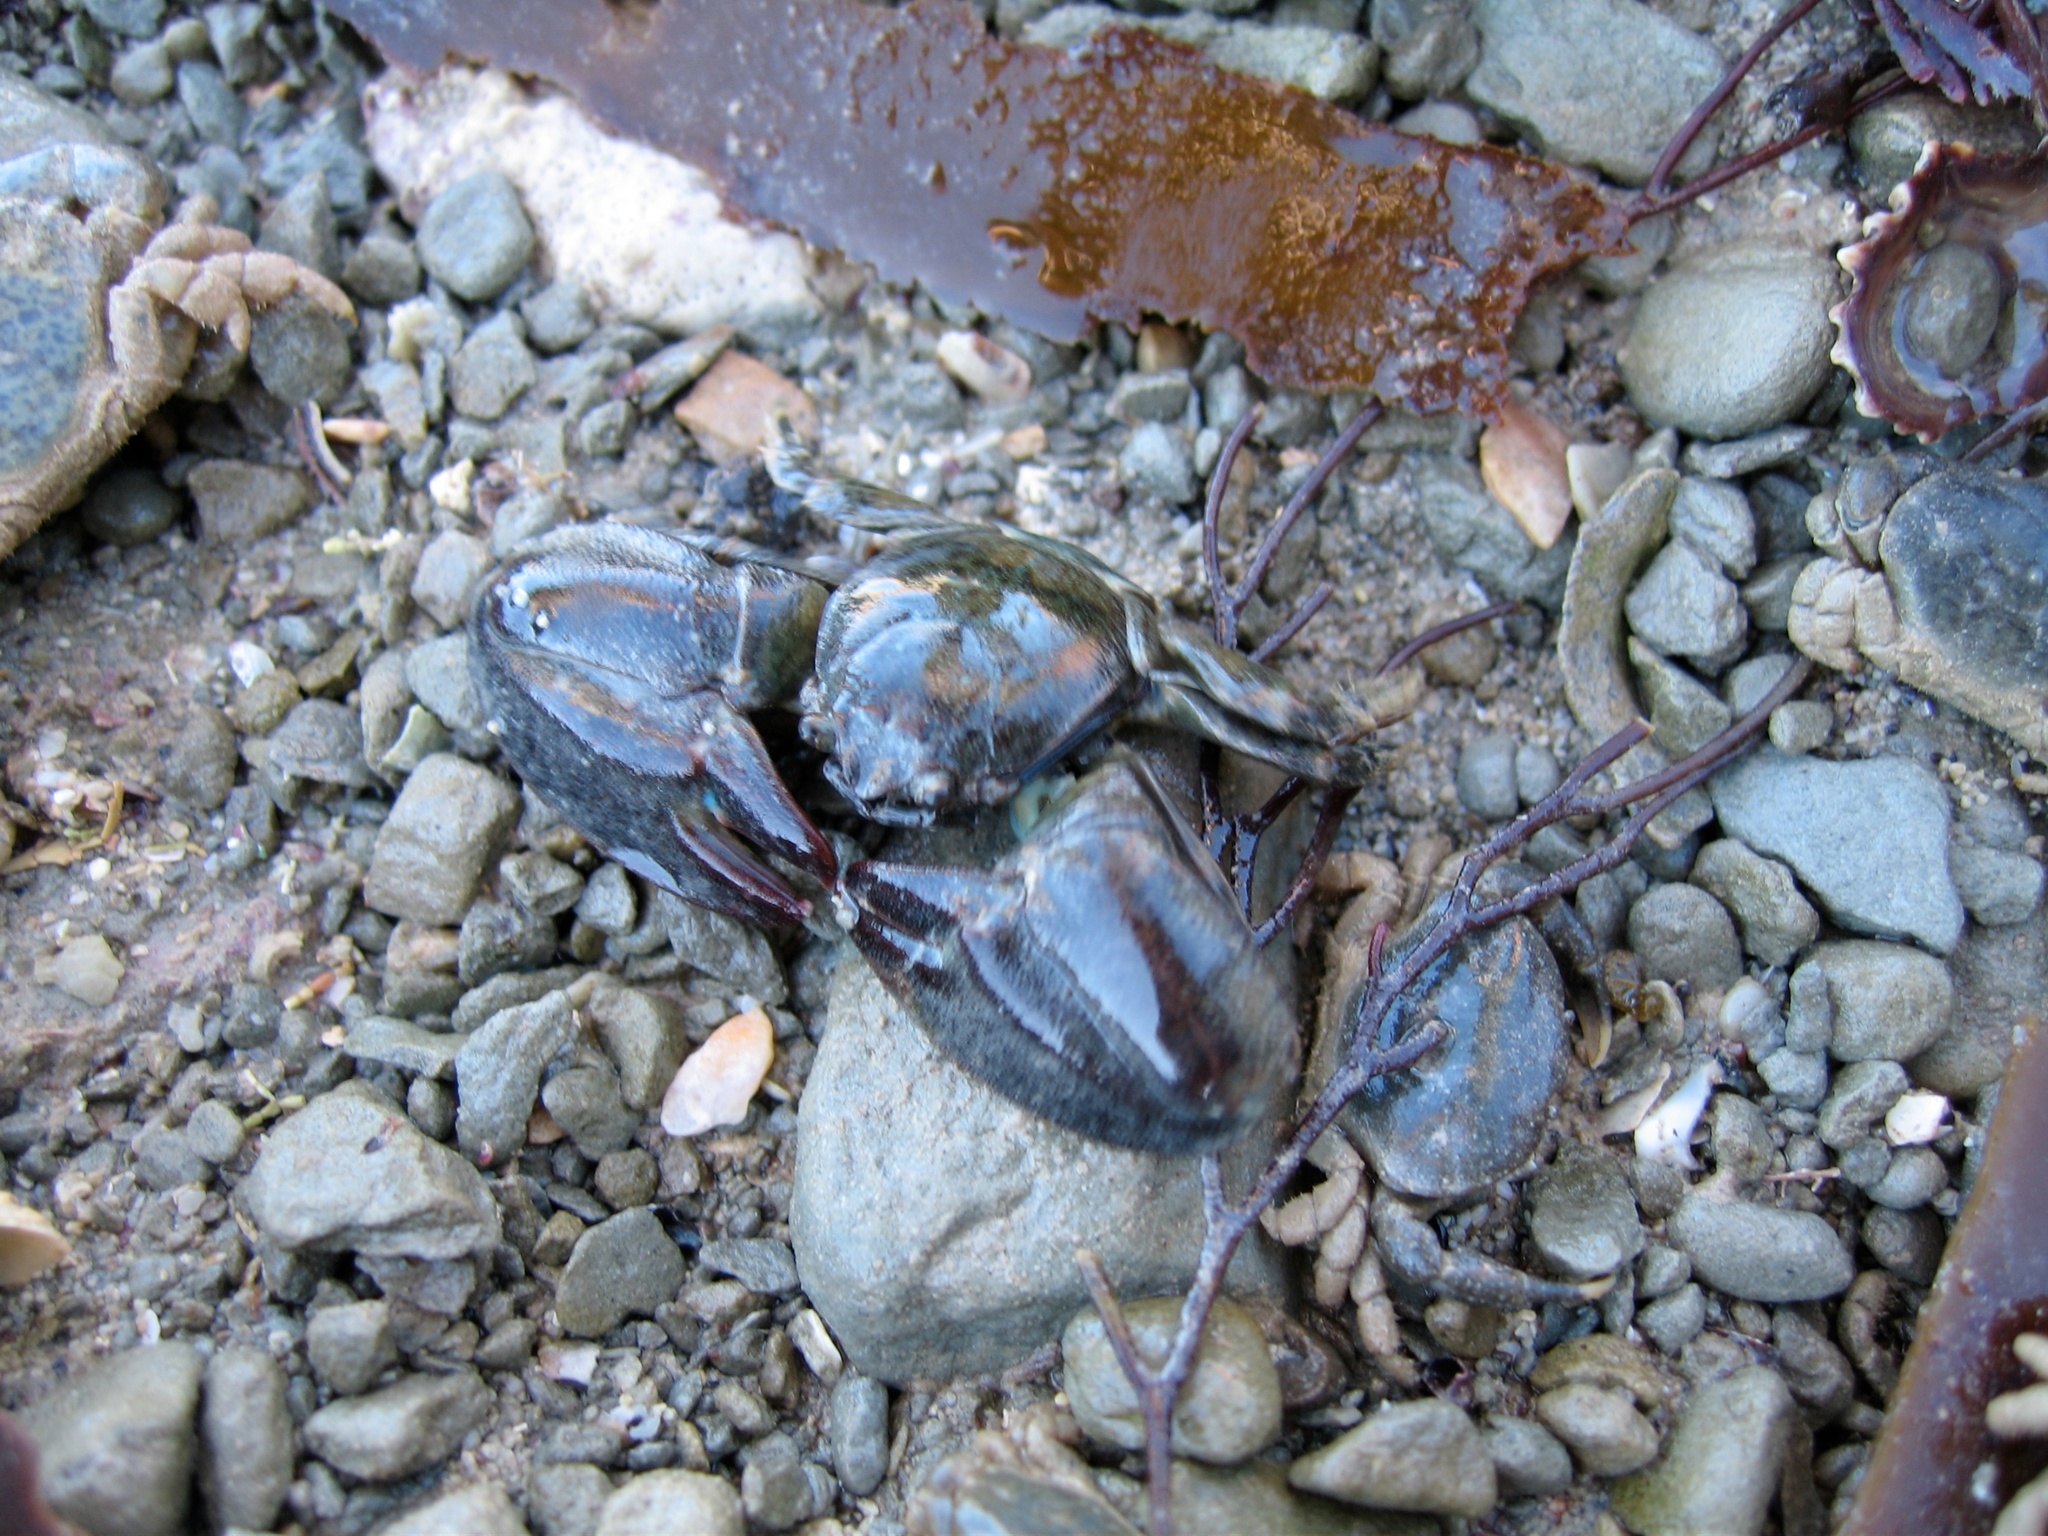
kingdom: Animalia
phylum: Arthropoda
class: Malacostraca
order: Decapoda
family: Porcellanidae
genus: Petrolisthes
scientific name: Petrolisthes elongatus
